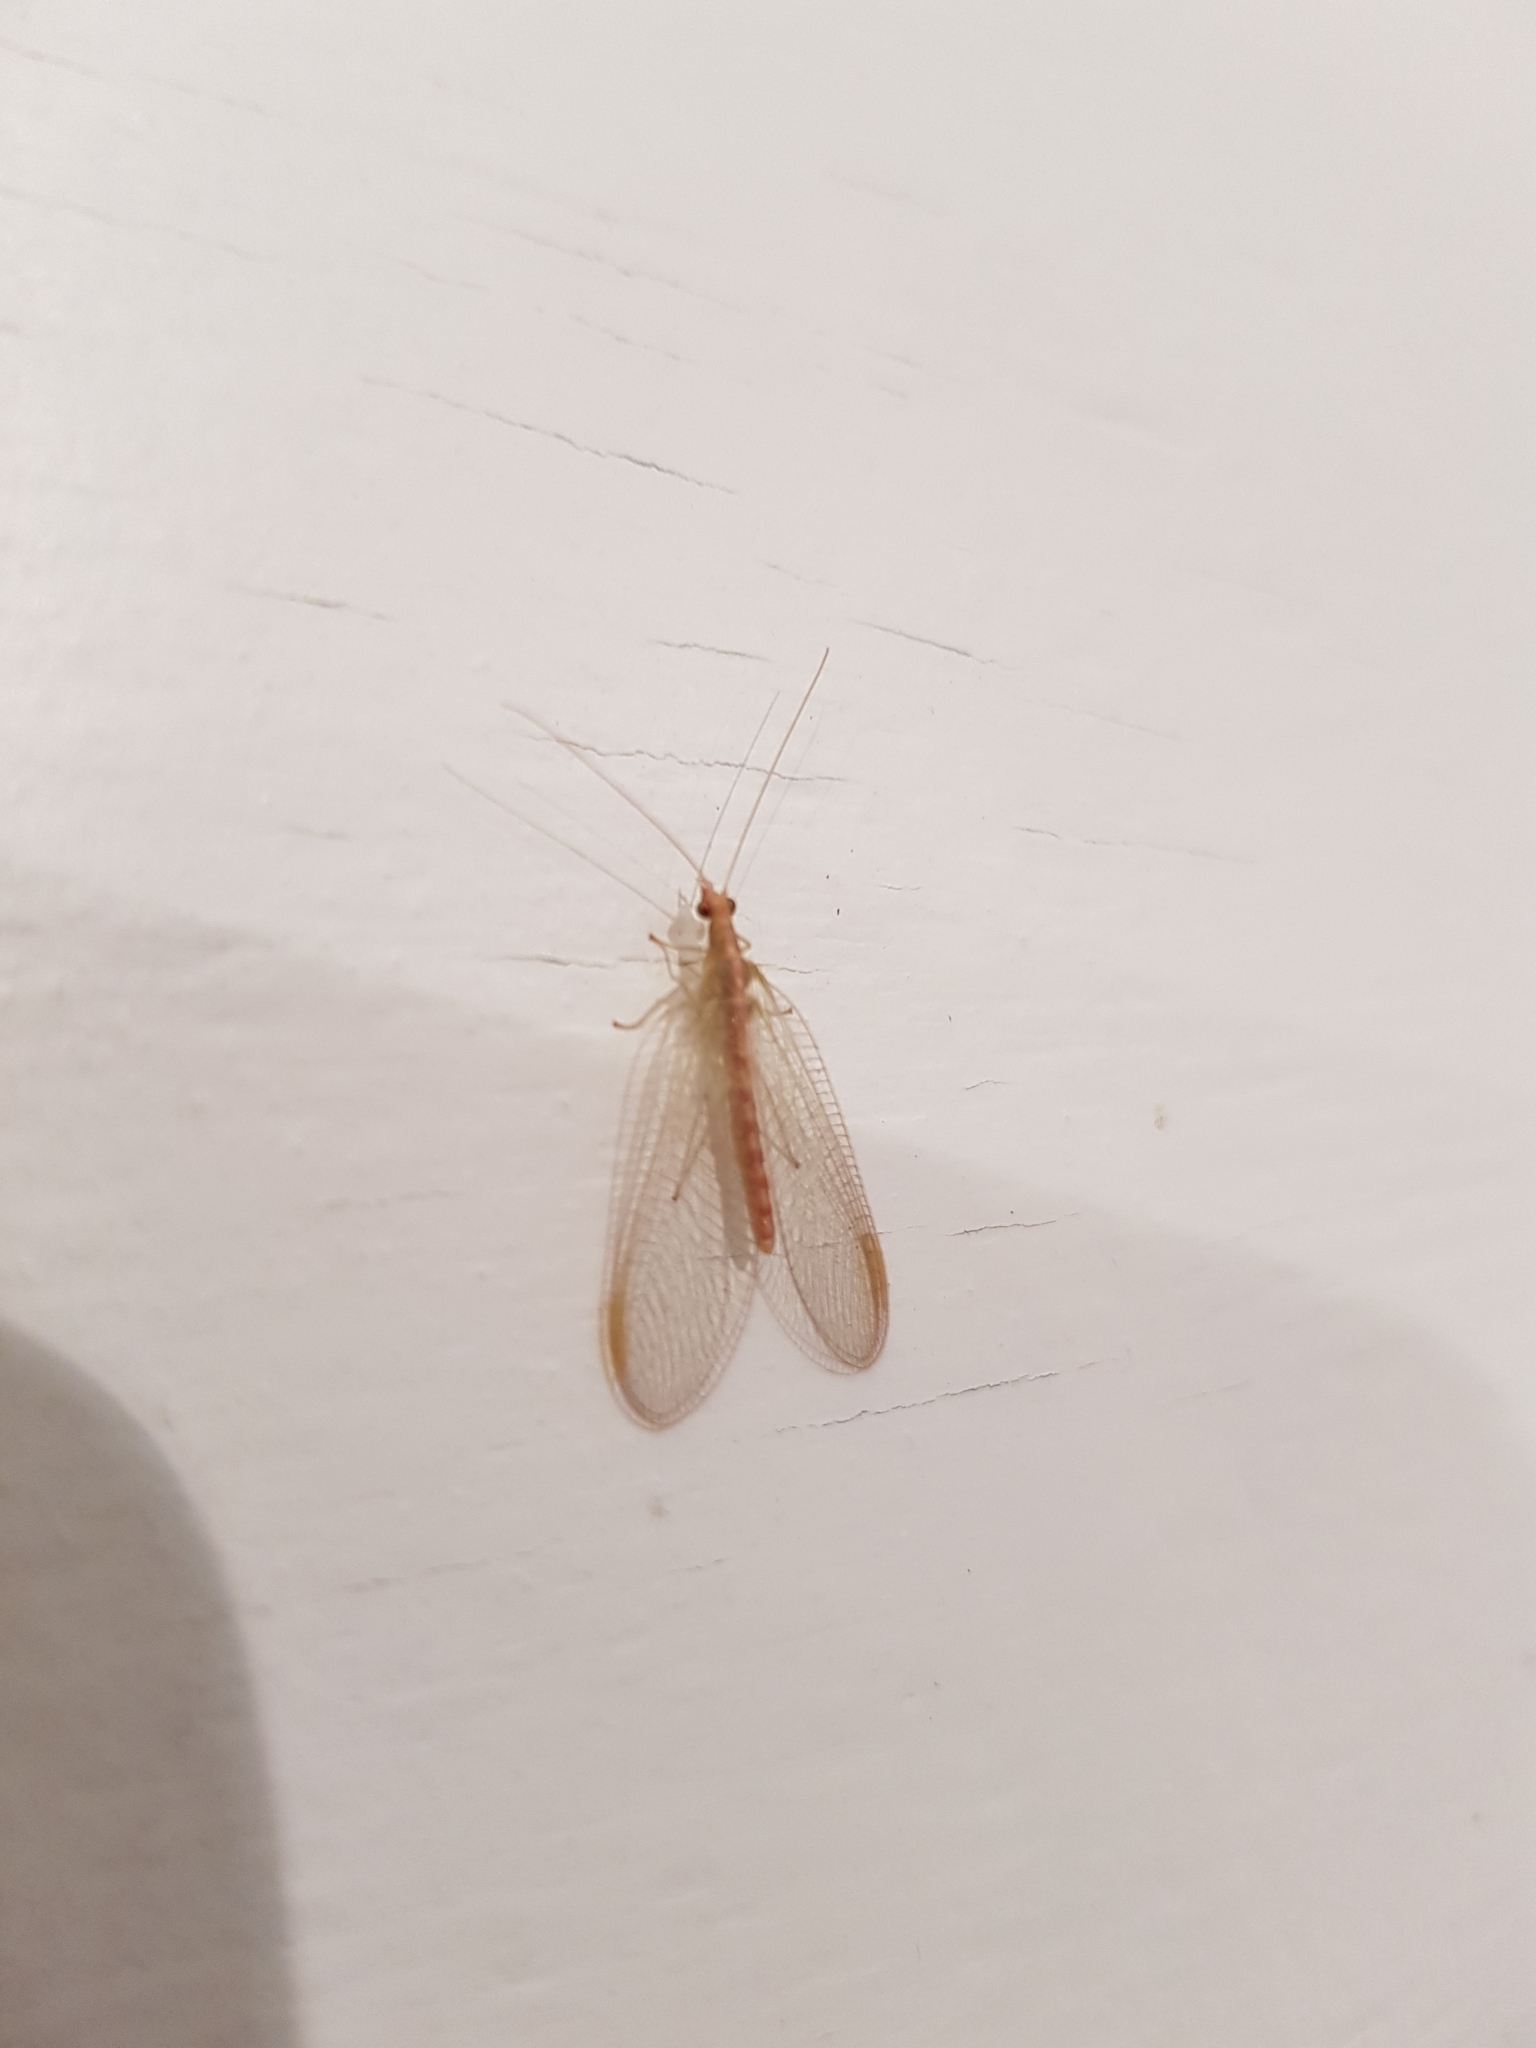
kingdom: Animalia
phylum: Arthropoda
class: Insecta
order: Neuroptera
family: Chrysopidae
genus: Chrysoperla
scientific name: Chrysoperla
